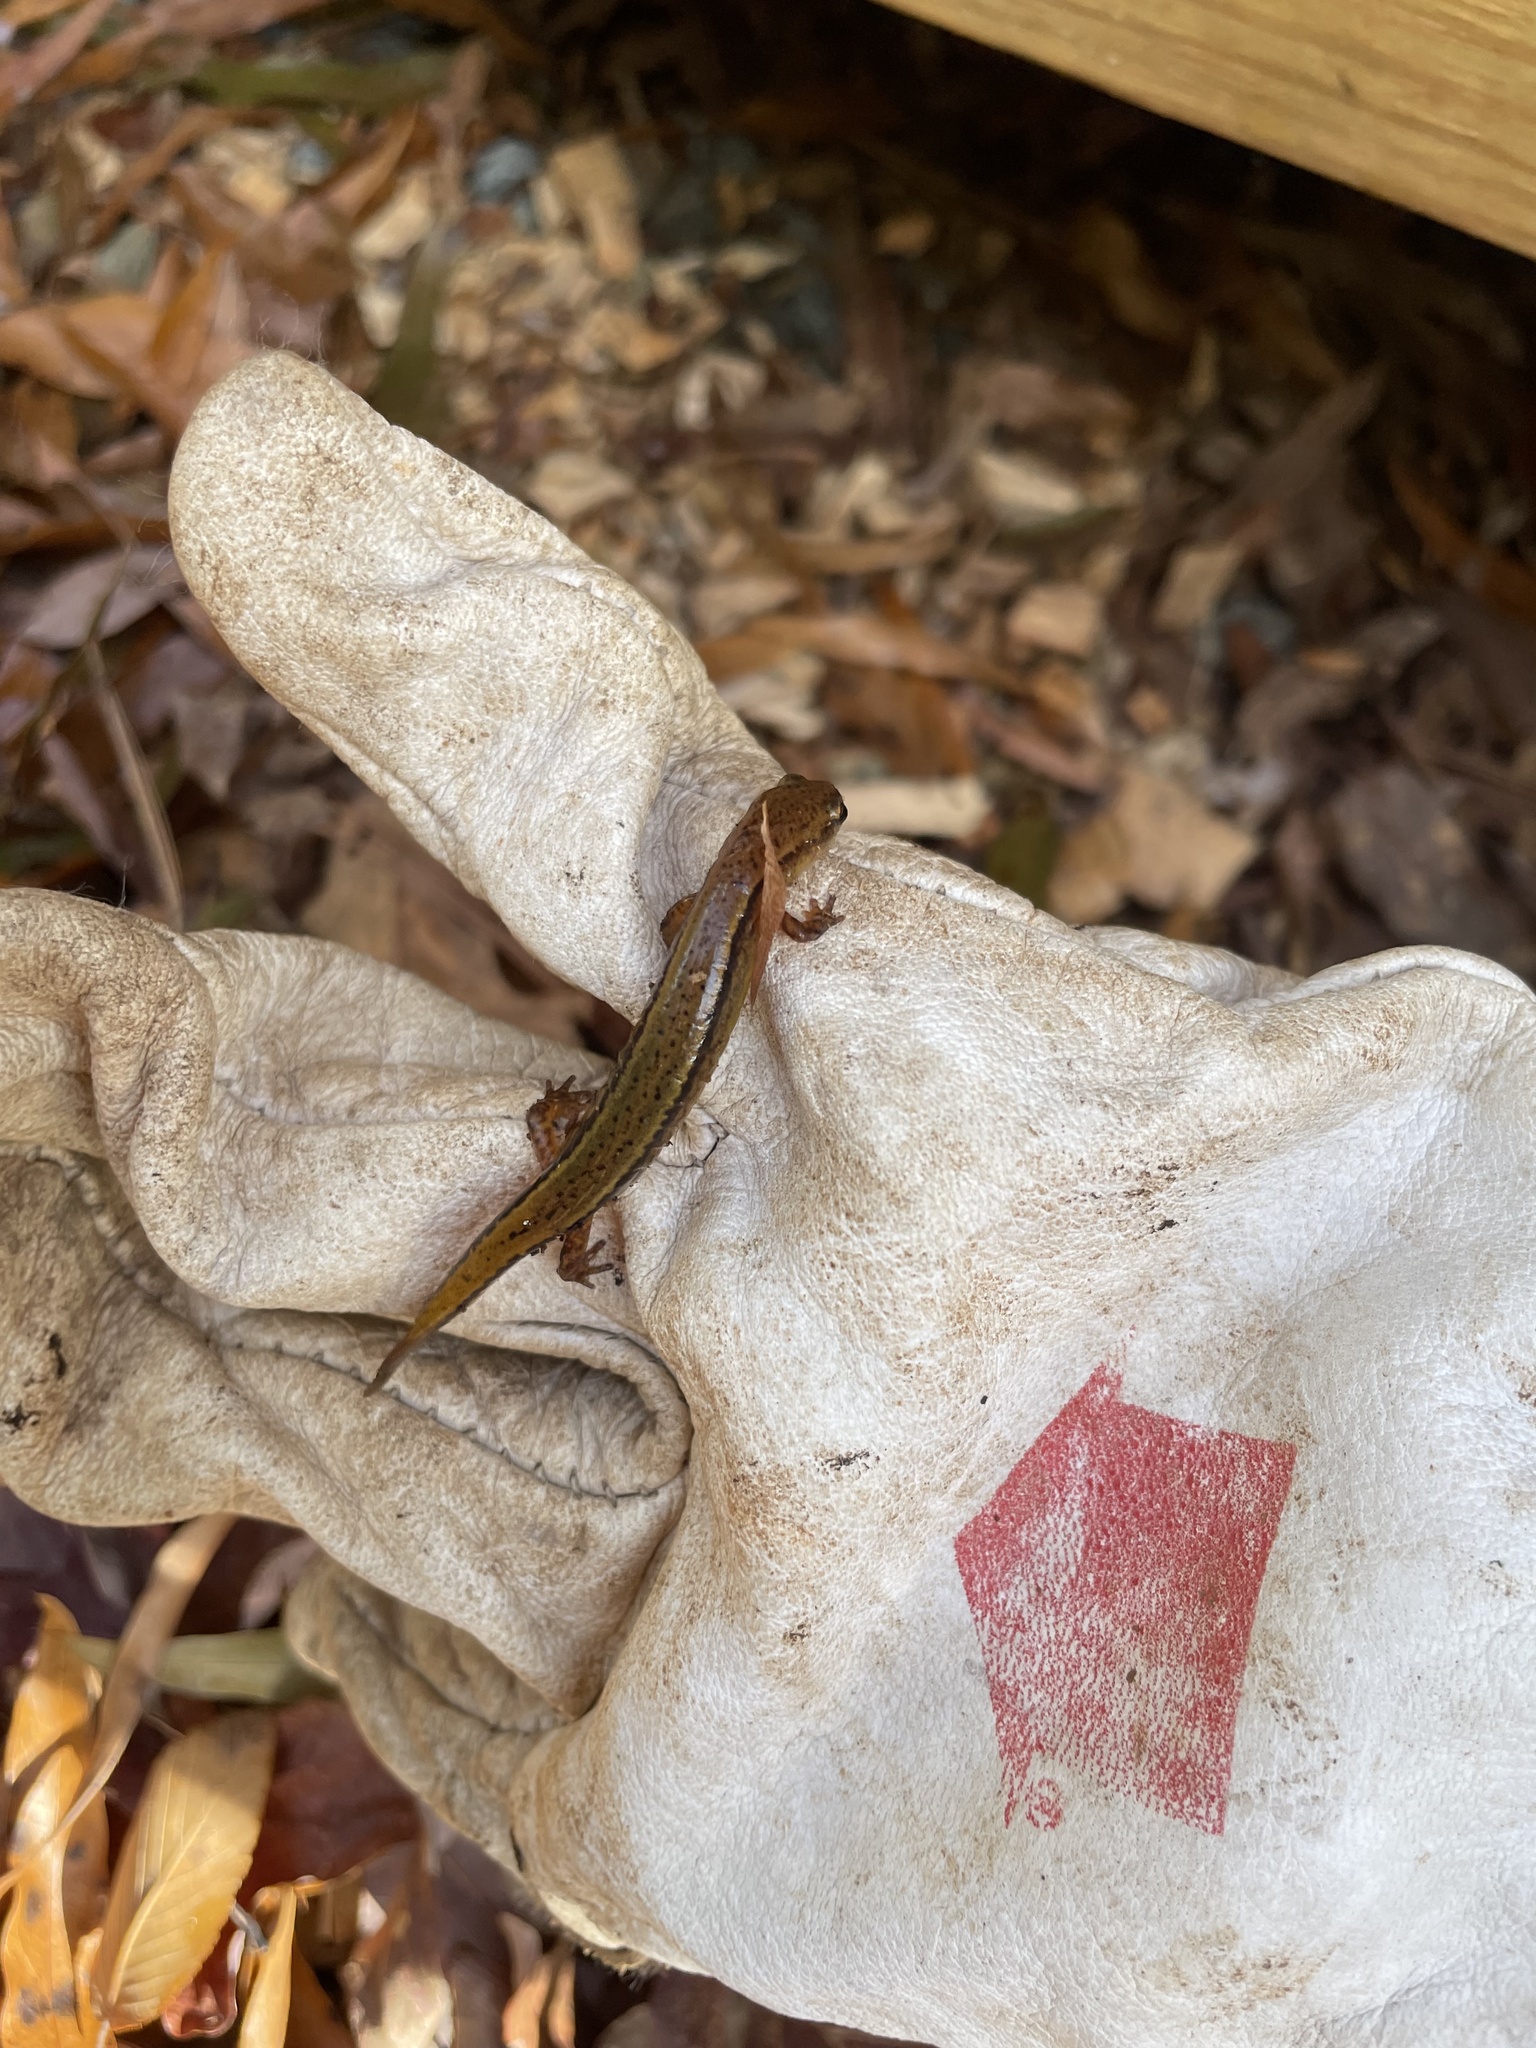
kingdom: Animalia
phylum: Chordata
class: Amphibia
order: Caudata
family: Plethodontidae
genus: Eurycea
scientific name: Eurycea cirrigera
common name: Southern two-lined salamander
